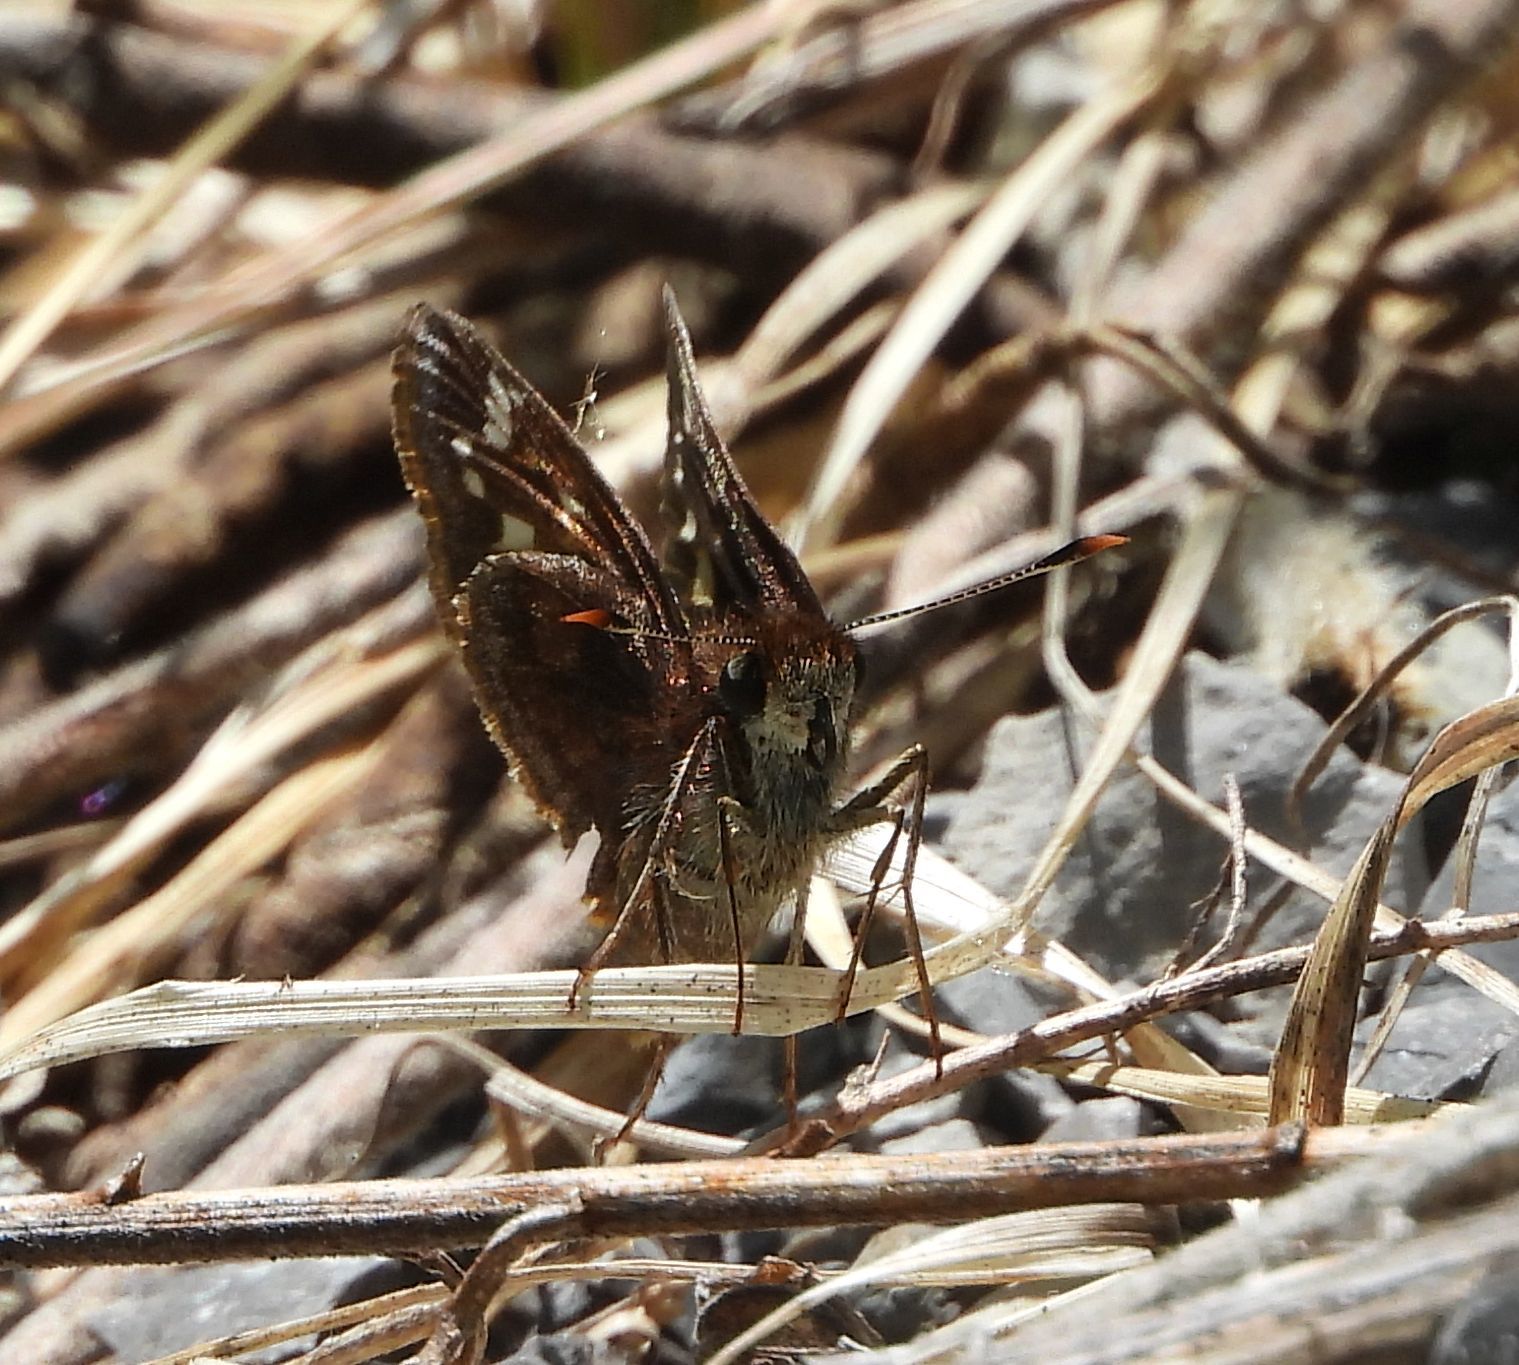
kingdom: Animalia
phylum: Arthropoda
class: Insecta
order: Lepidoptera
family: Hesperiidae
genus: Lon
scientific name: Lon hobomok
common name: Hobomok skipper
